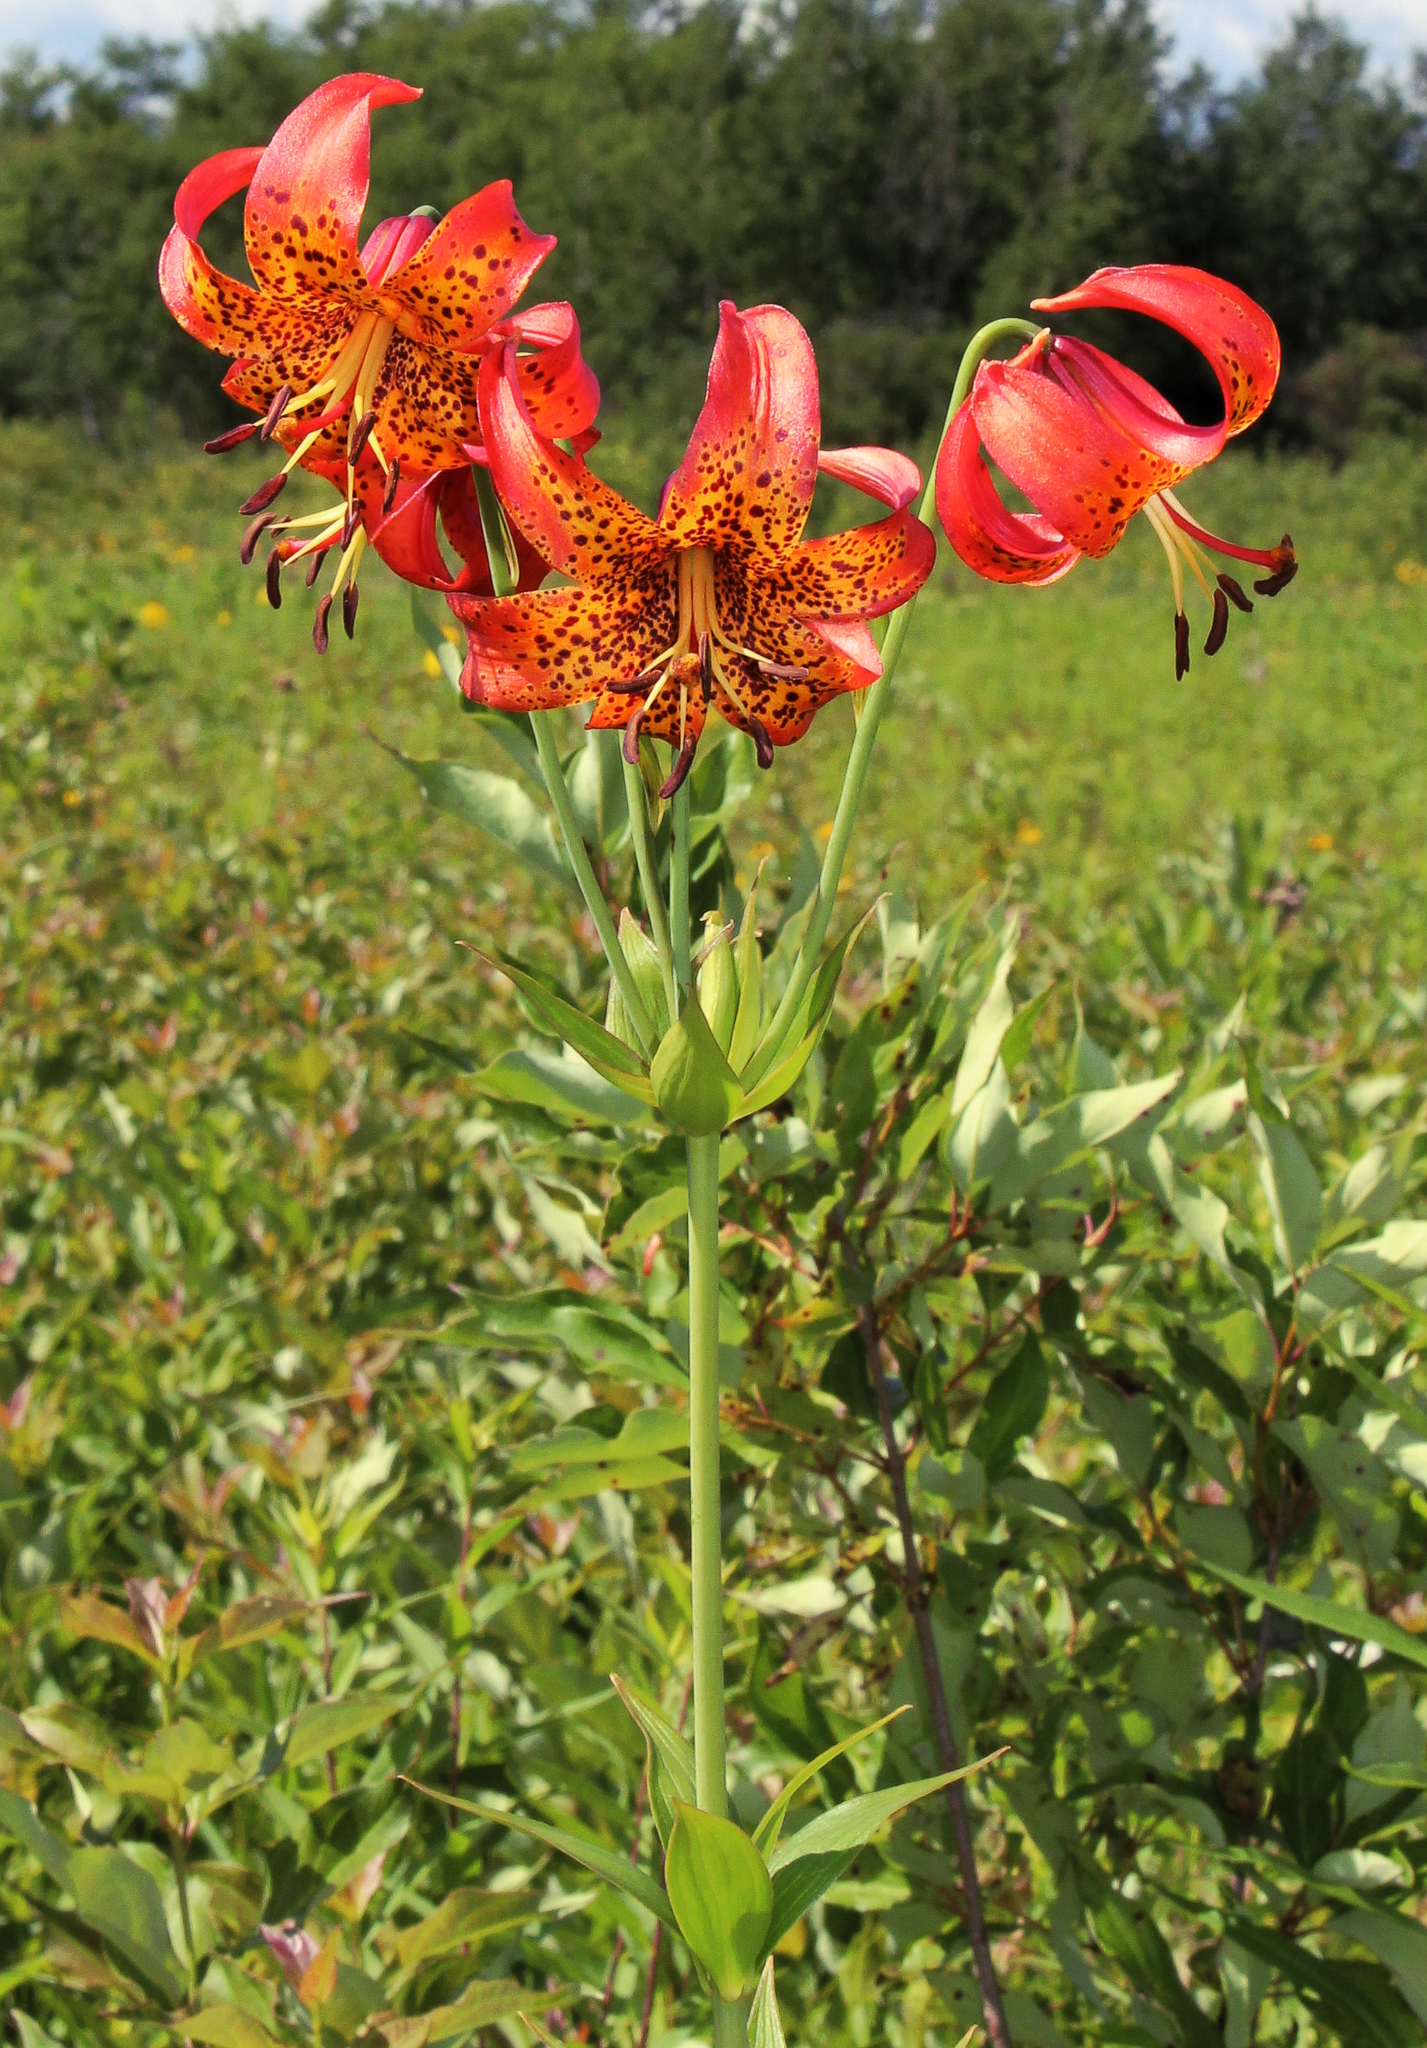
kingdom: Plantae
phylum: Tracheophyta
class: Liliopsida
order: Liliales
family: Liliaceae
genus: Lilium
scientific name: Lilium michiganense
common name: Michigan lily
